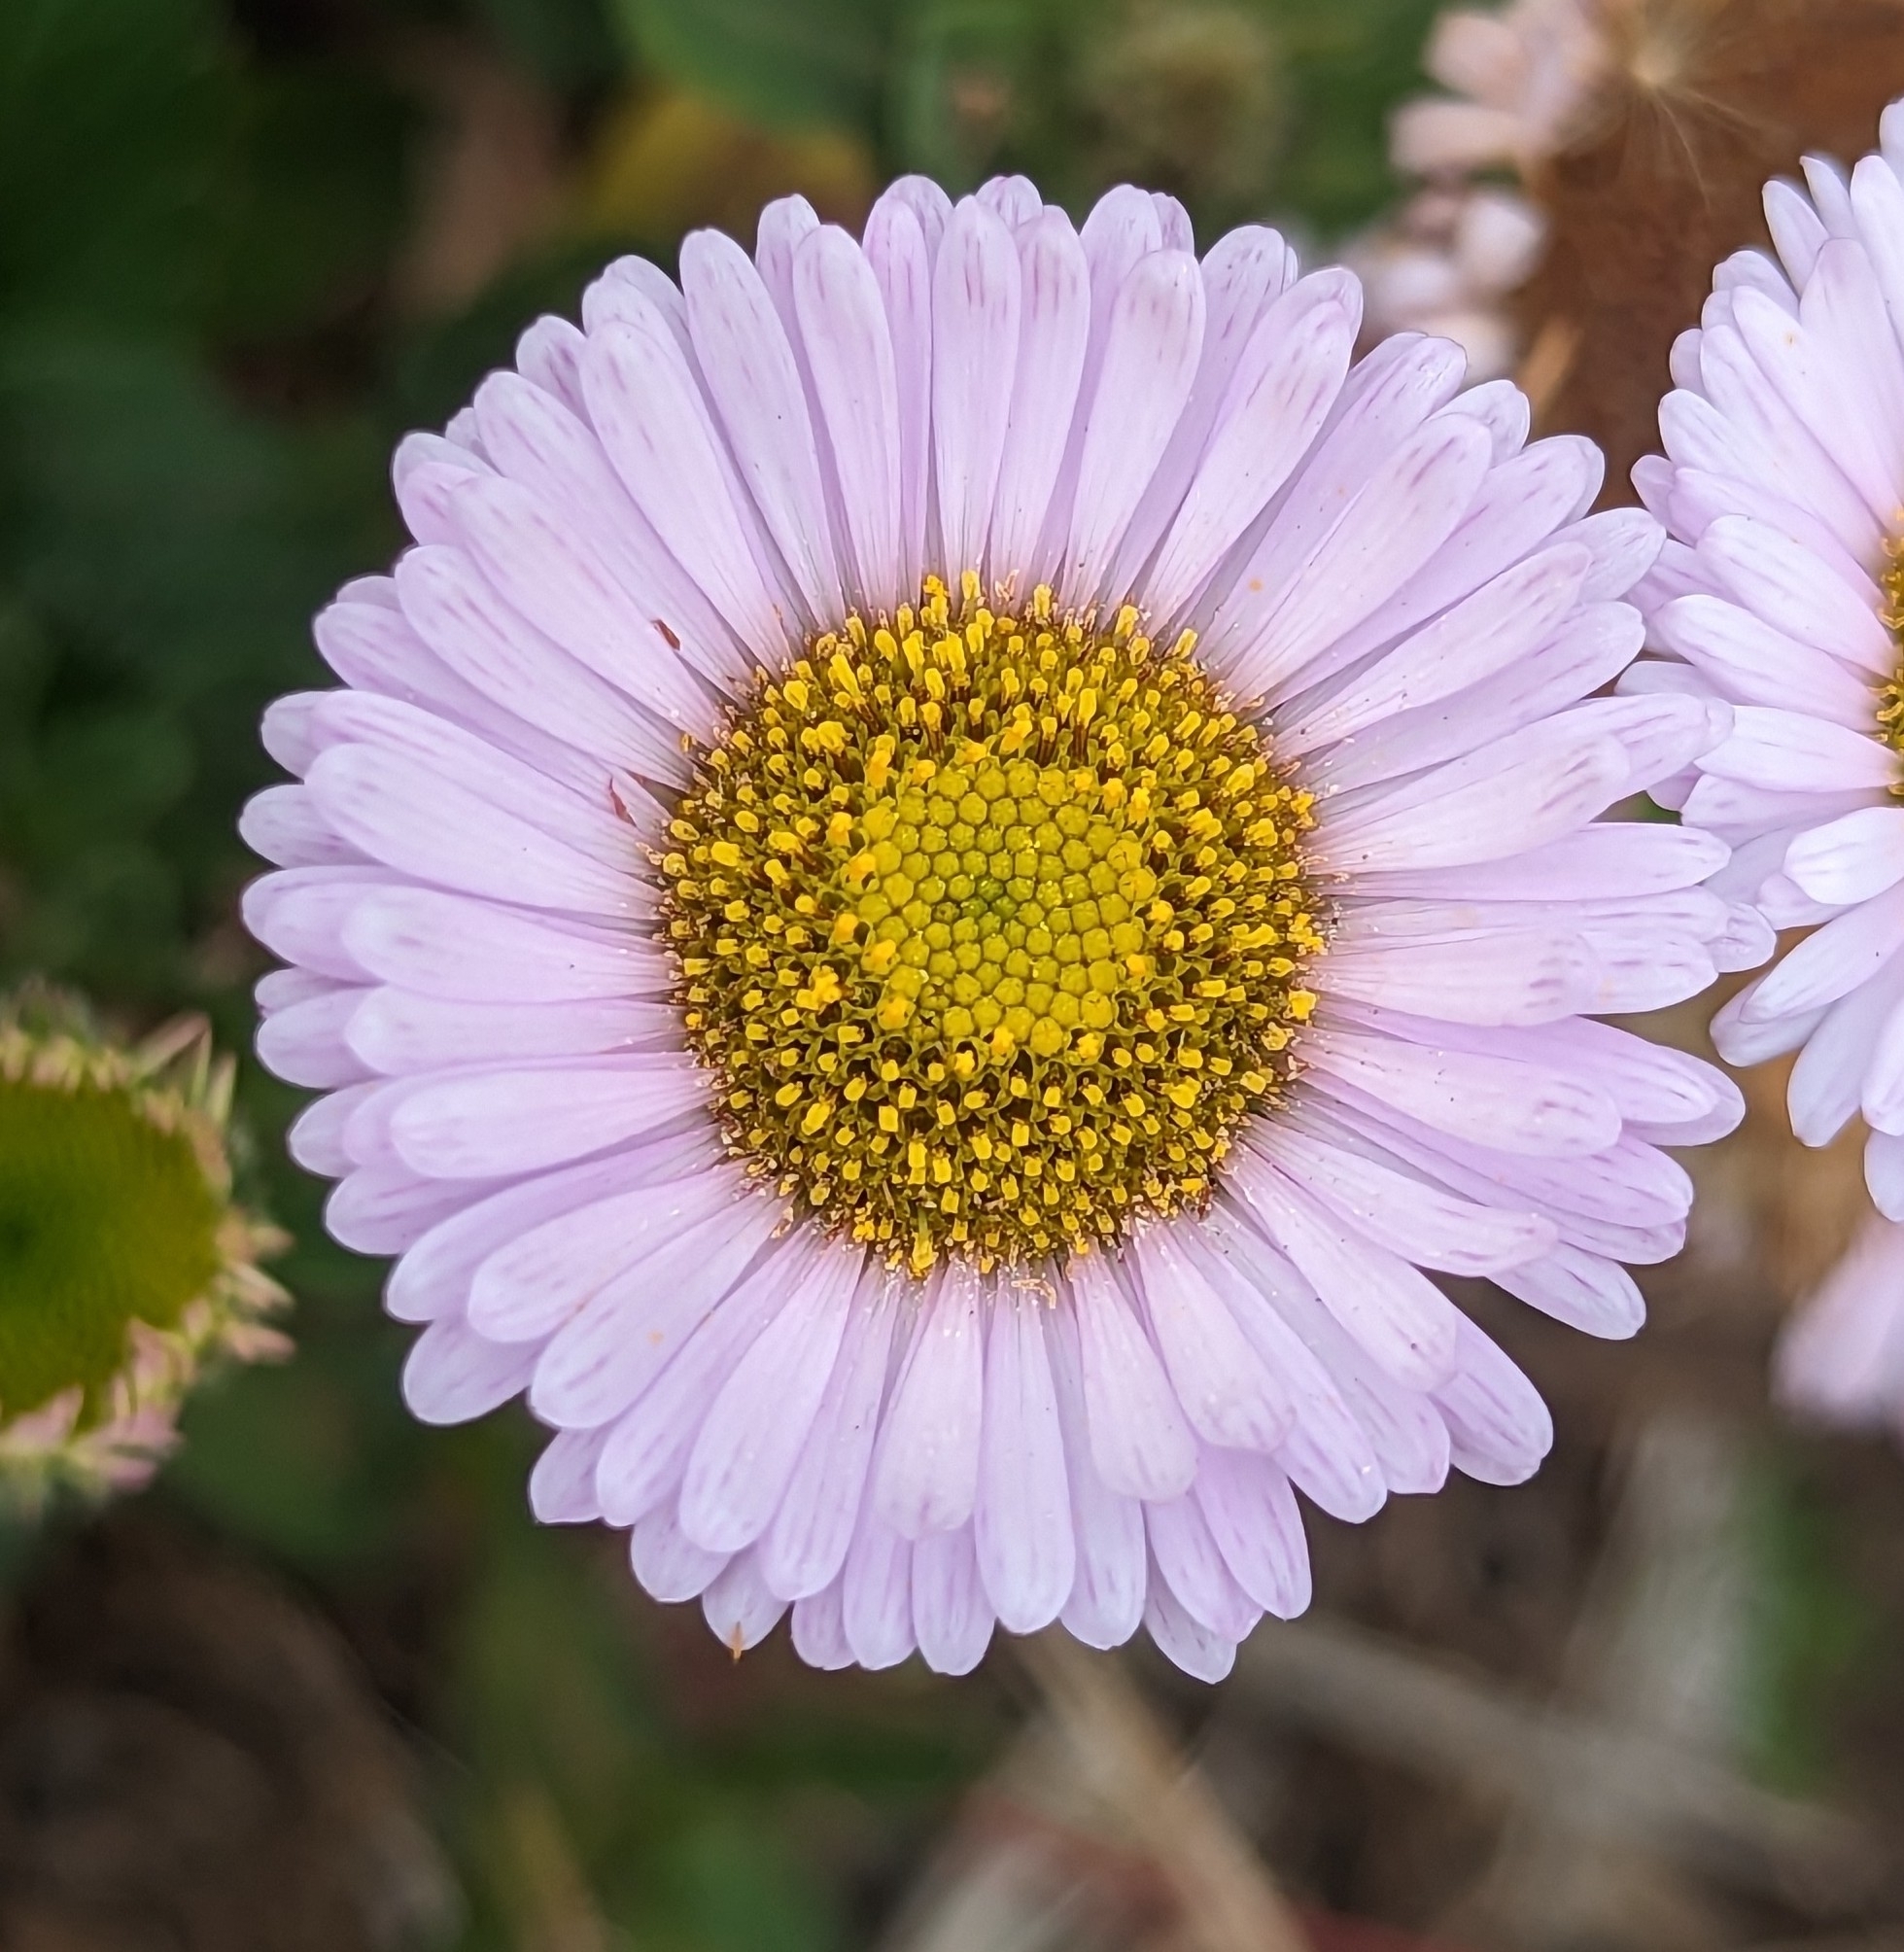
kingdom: Plantae
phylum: Tracheophyta
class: Magnoliopsida
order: Asterales
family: Asteraceae
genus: Erigeron
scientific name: Erigeron glaucus
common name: Seaside daisy
